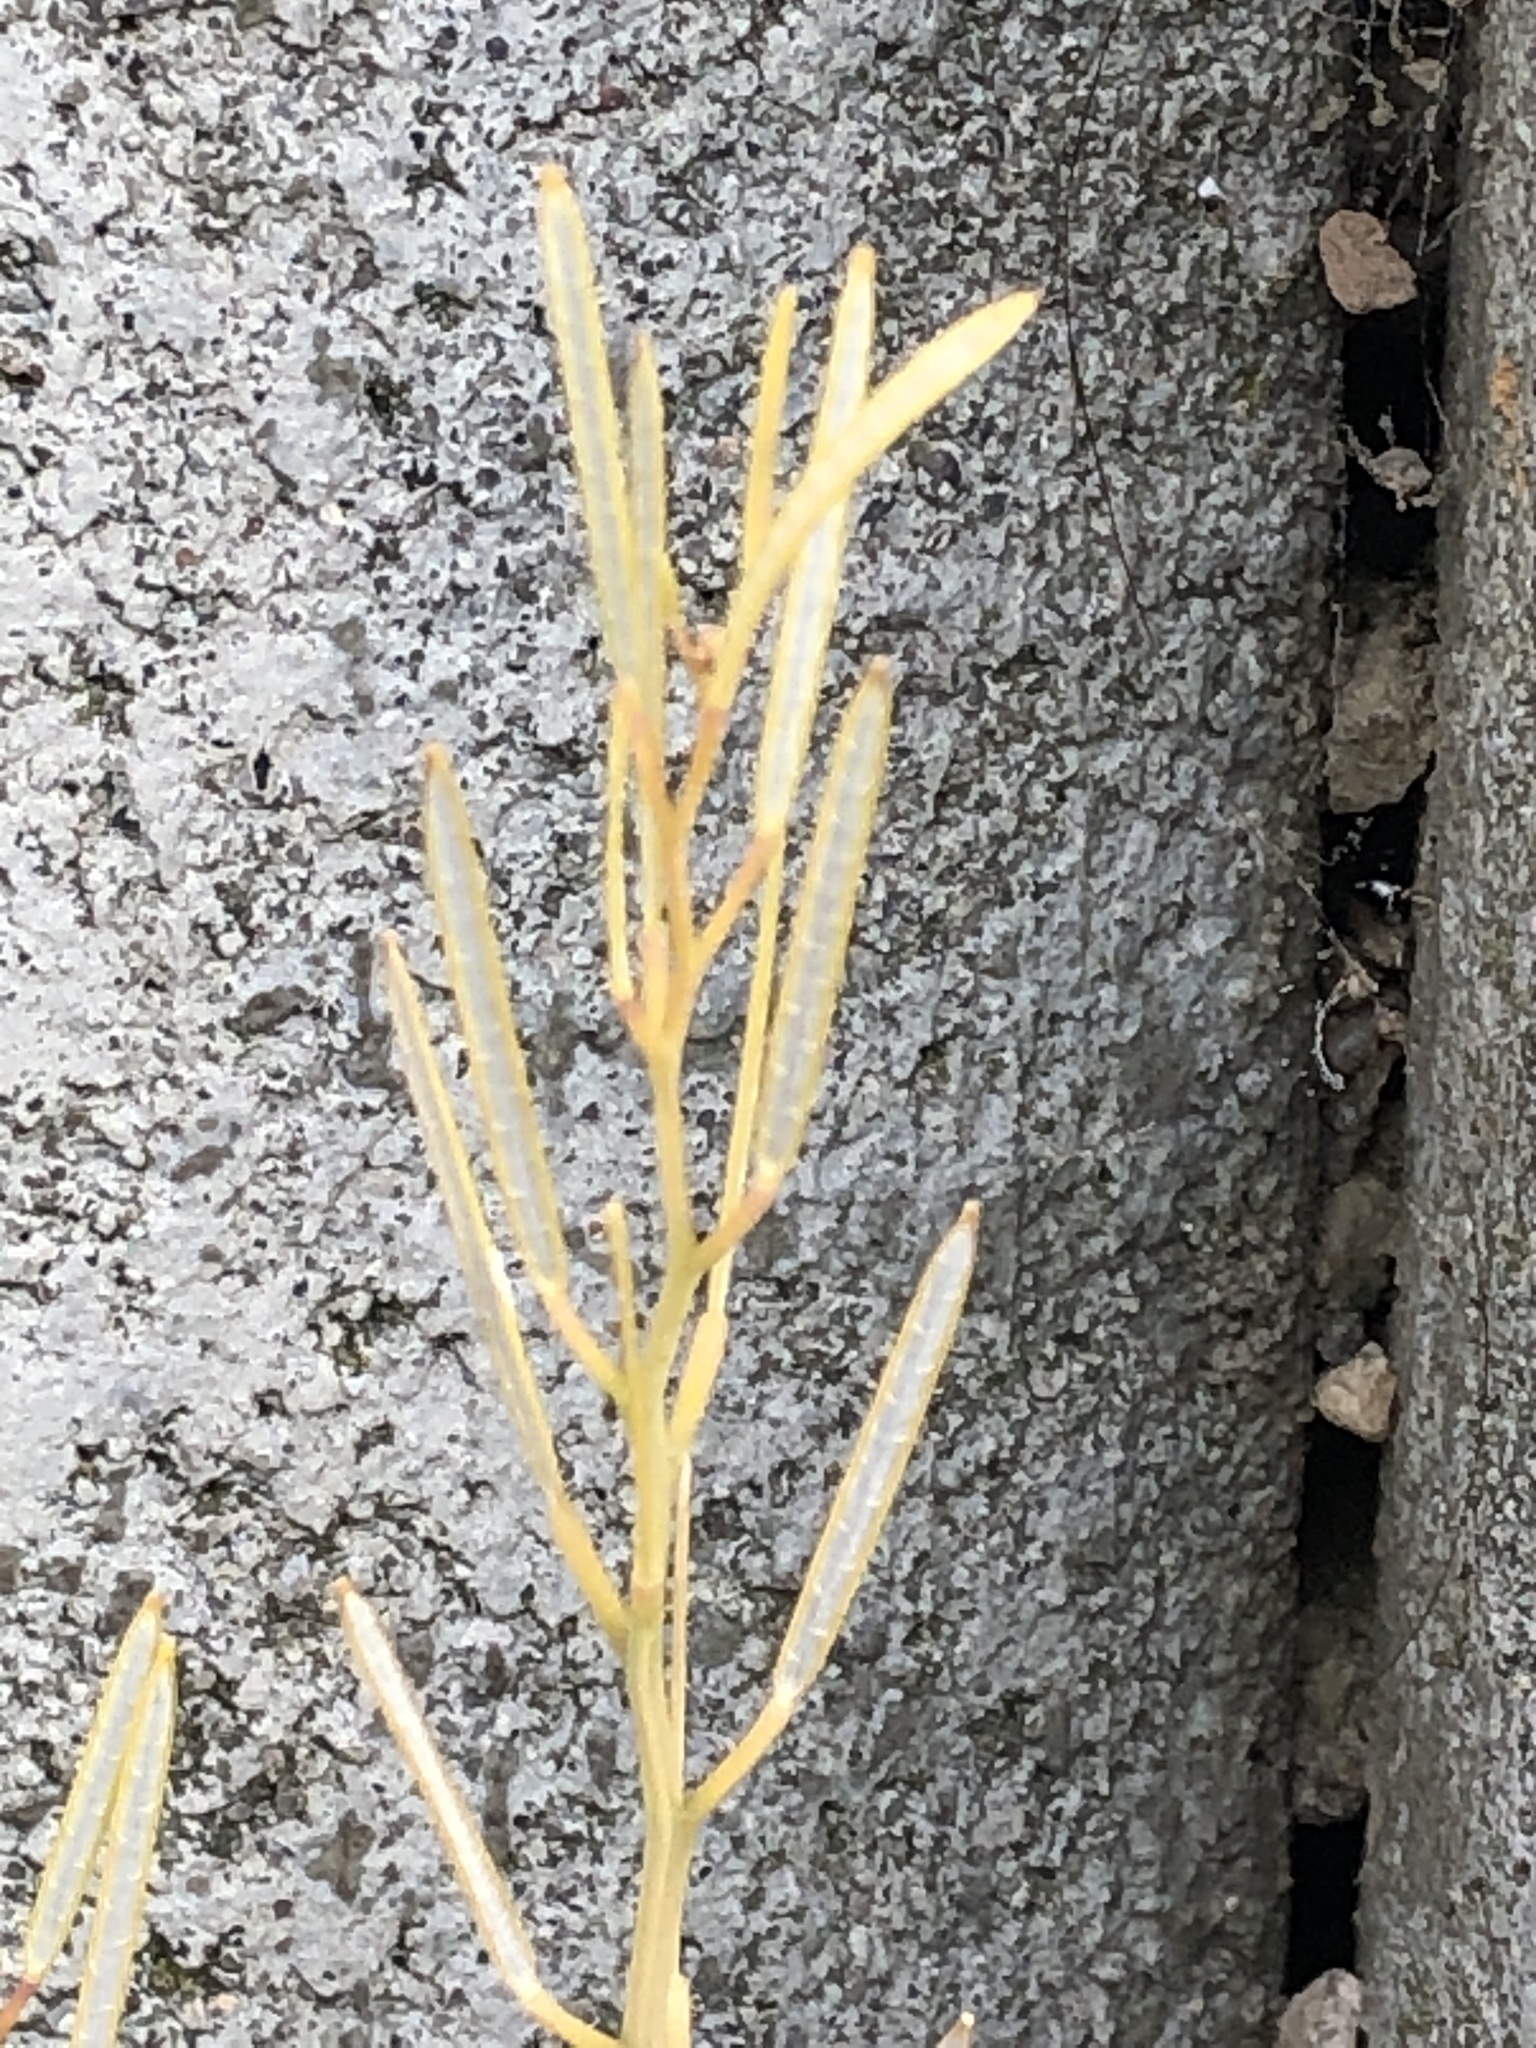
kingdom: Plantae
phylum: Tracheophyta
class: Magnoliopsida
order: Brassicales
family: Brassicaceae
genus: Cardamine
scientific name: Cardamine hirsuta
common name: Hairy bittercress
